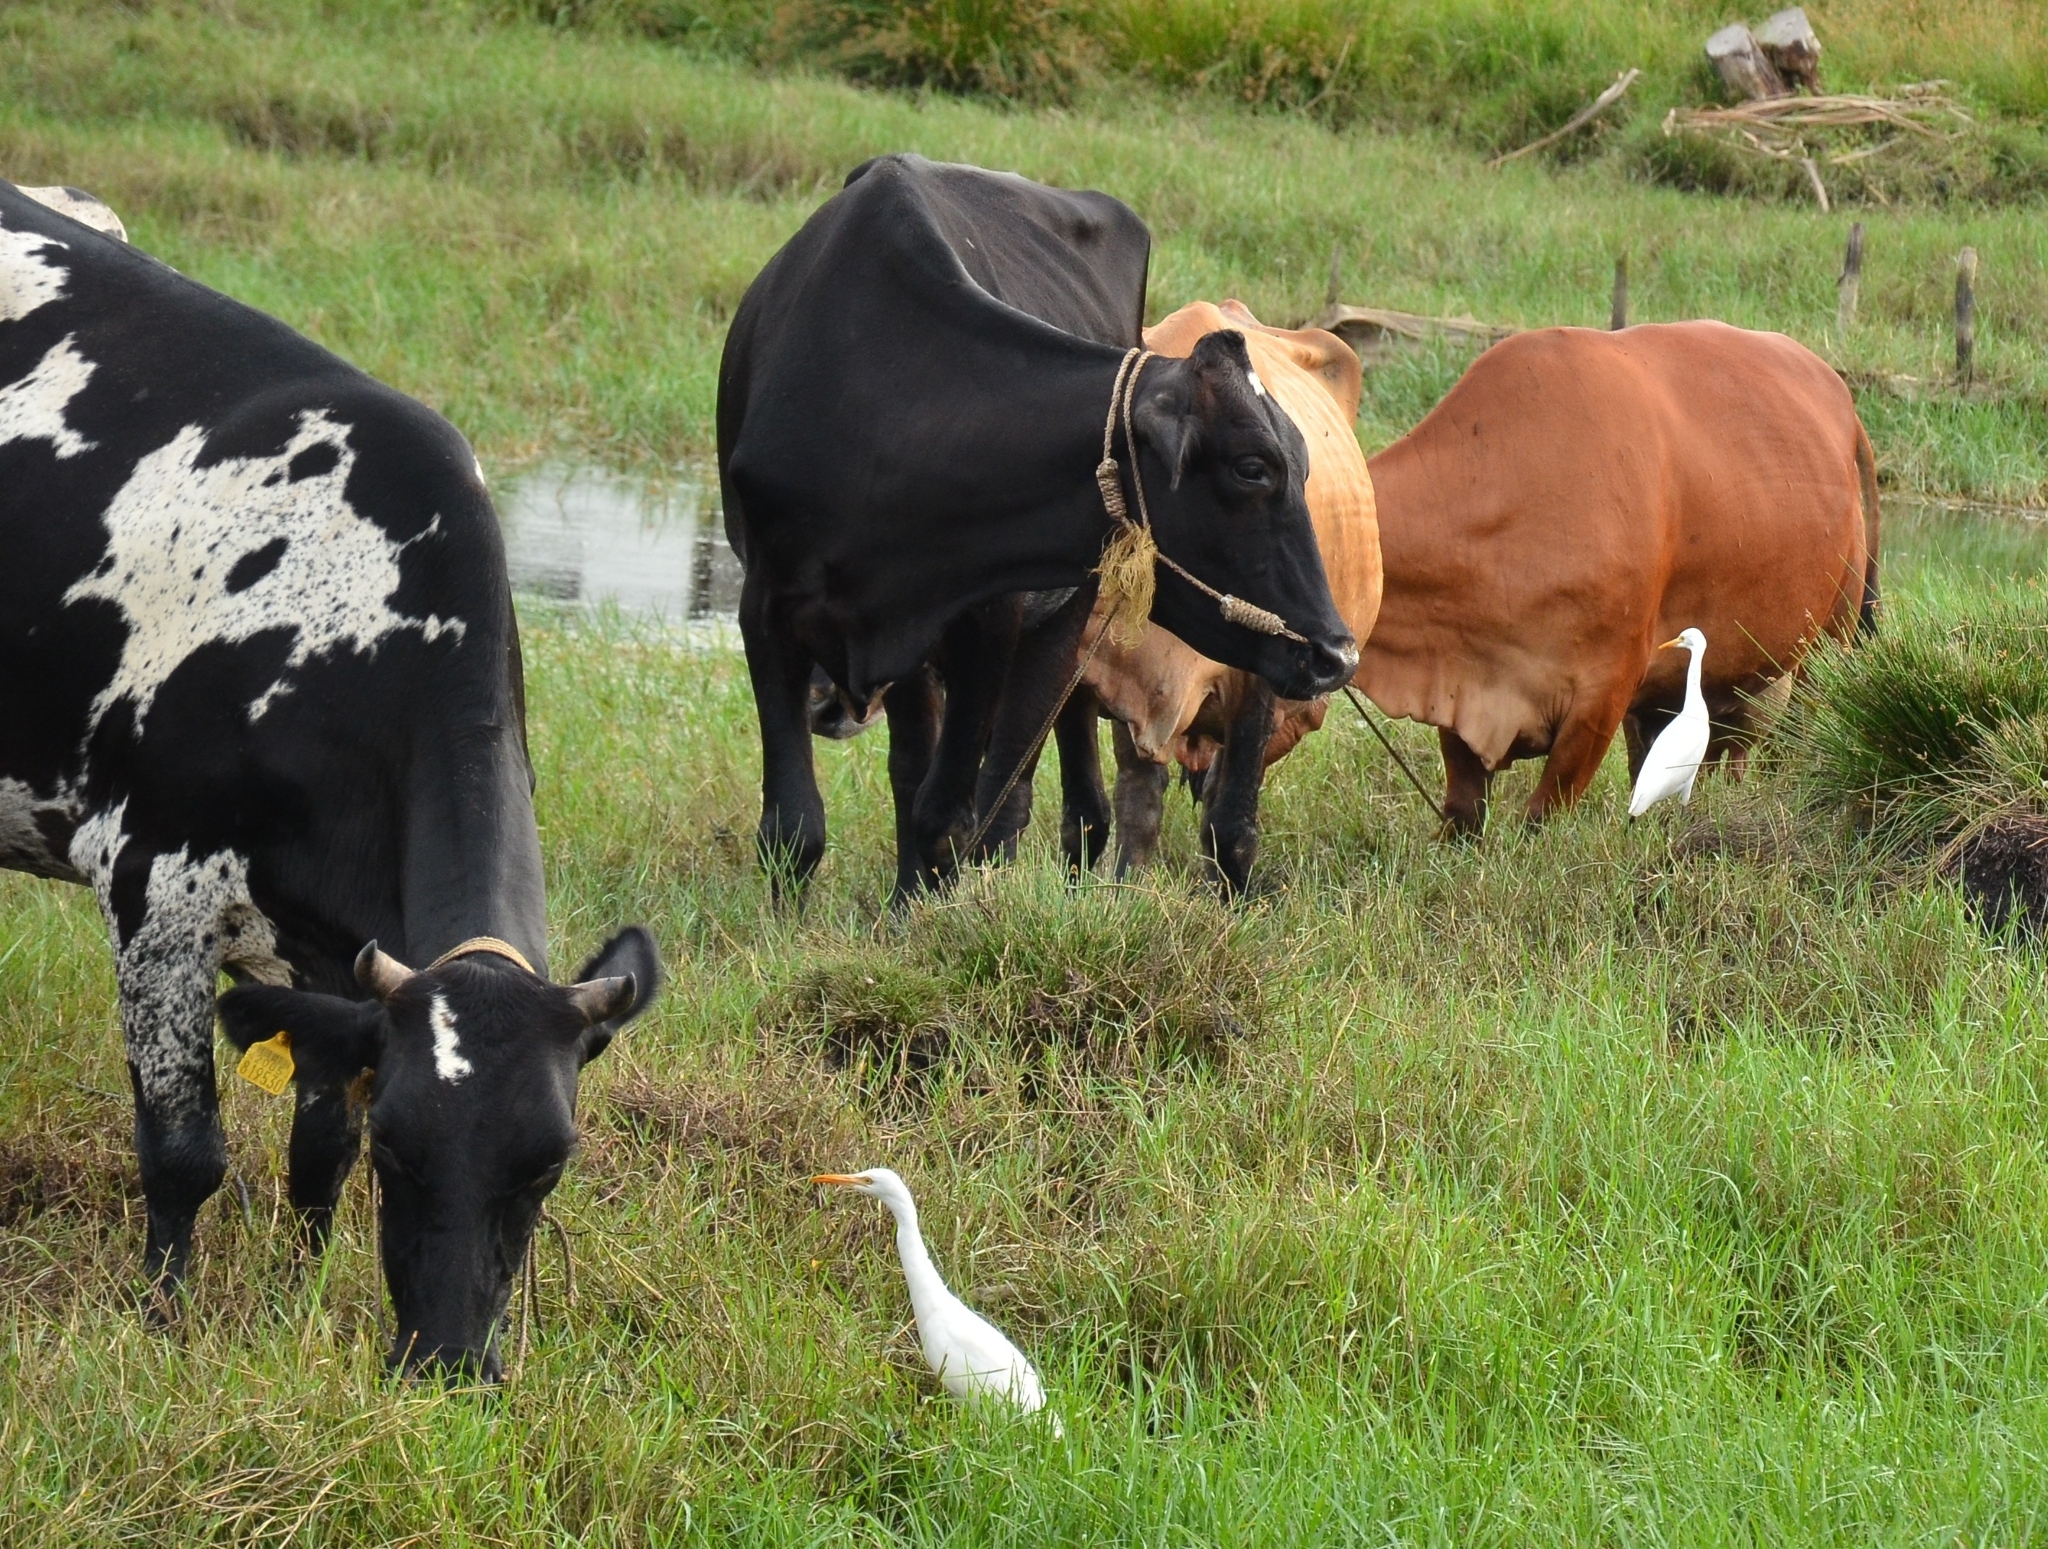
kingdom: Animalia
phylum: Chordata
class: Aves
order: Pelecaniformes
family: Ardeidae
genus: Bubulcus
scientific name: Bubulcus coromandus
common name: Eastern cattle egret
